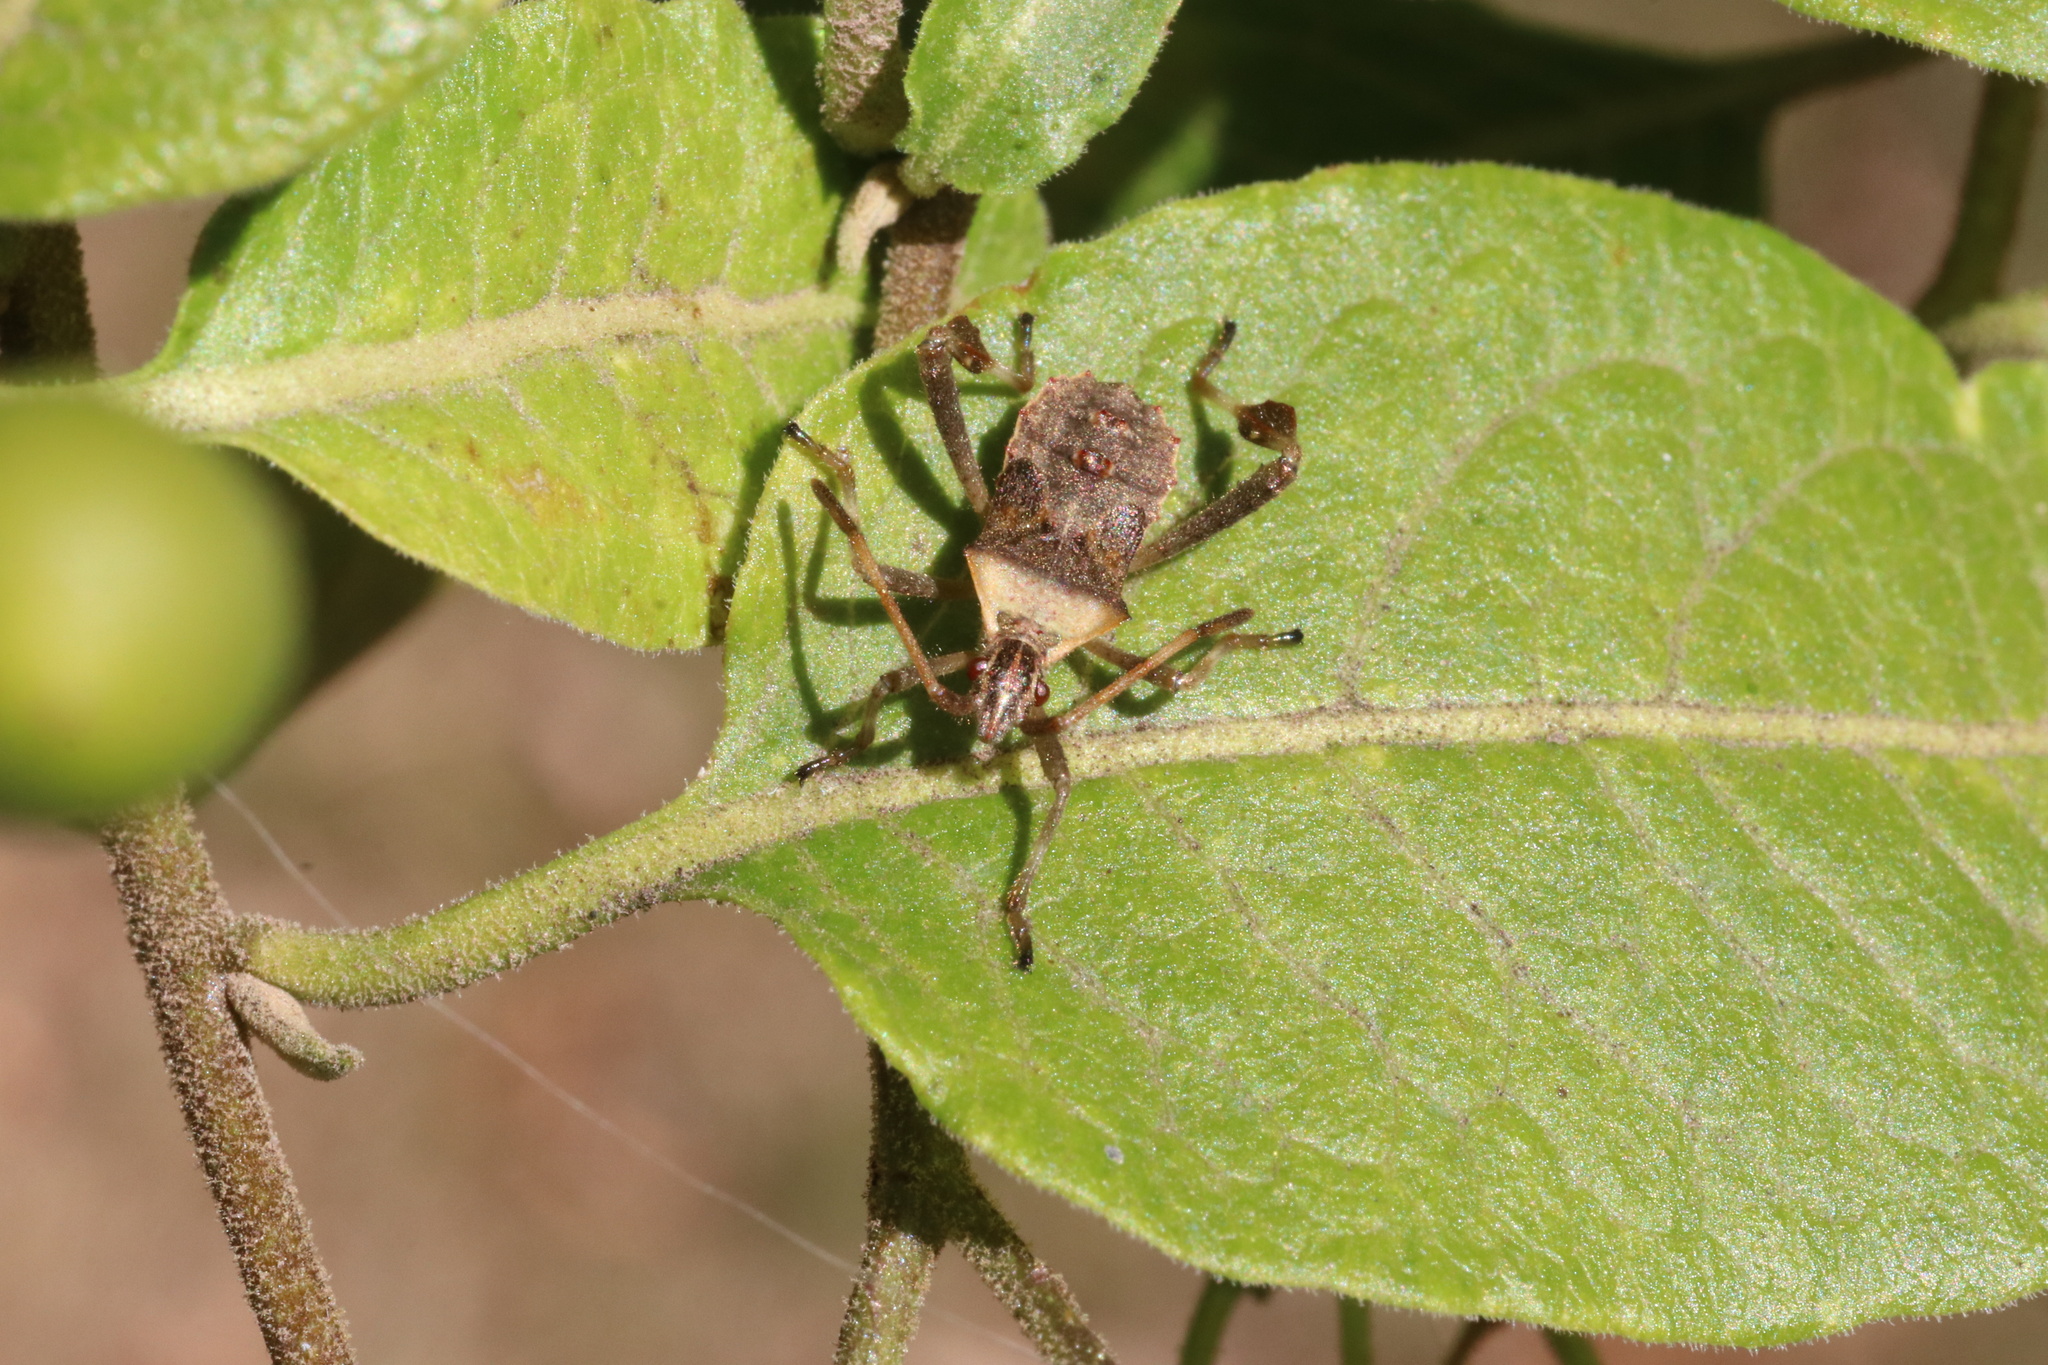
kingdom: Animalia
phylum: Arthropoda
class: Insecta
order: Hemiptera
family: Coreidae
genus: Leptoglossus
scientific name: Leptoglossus chilensis
